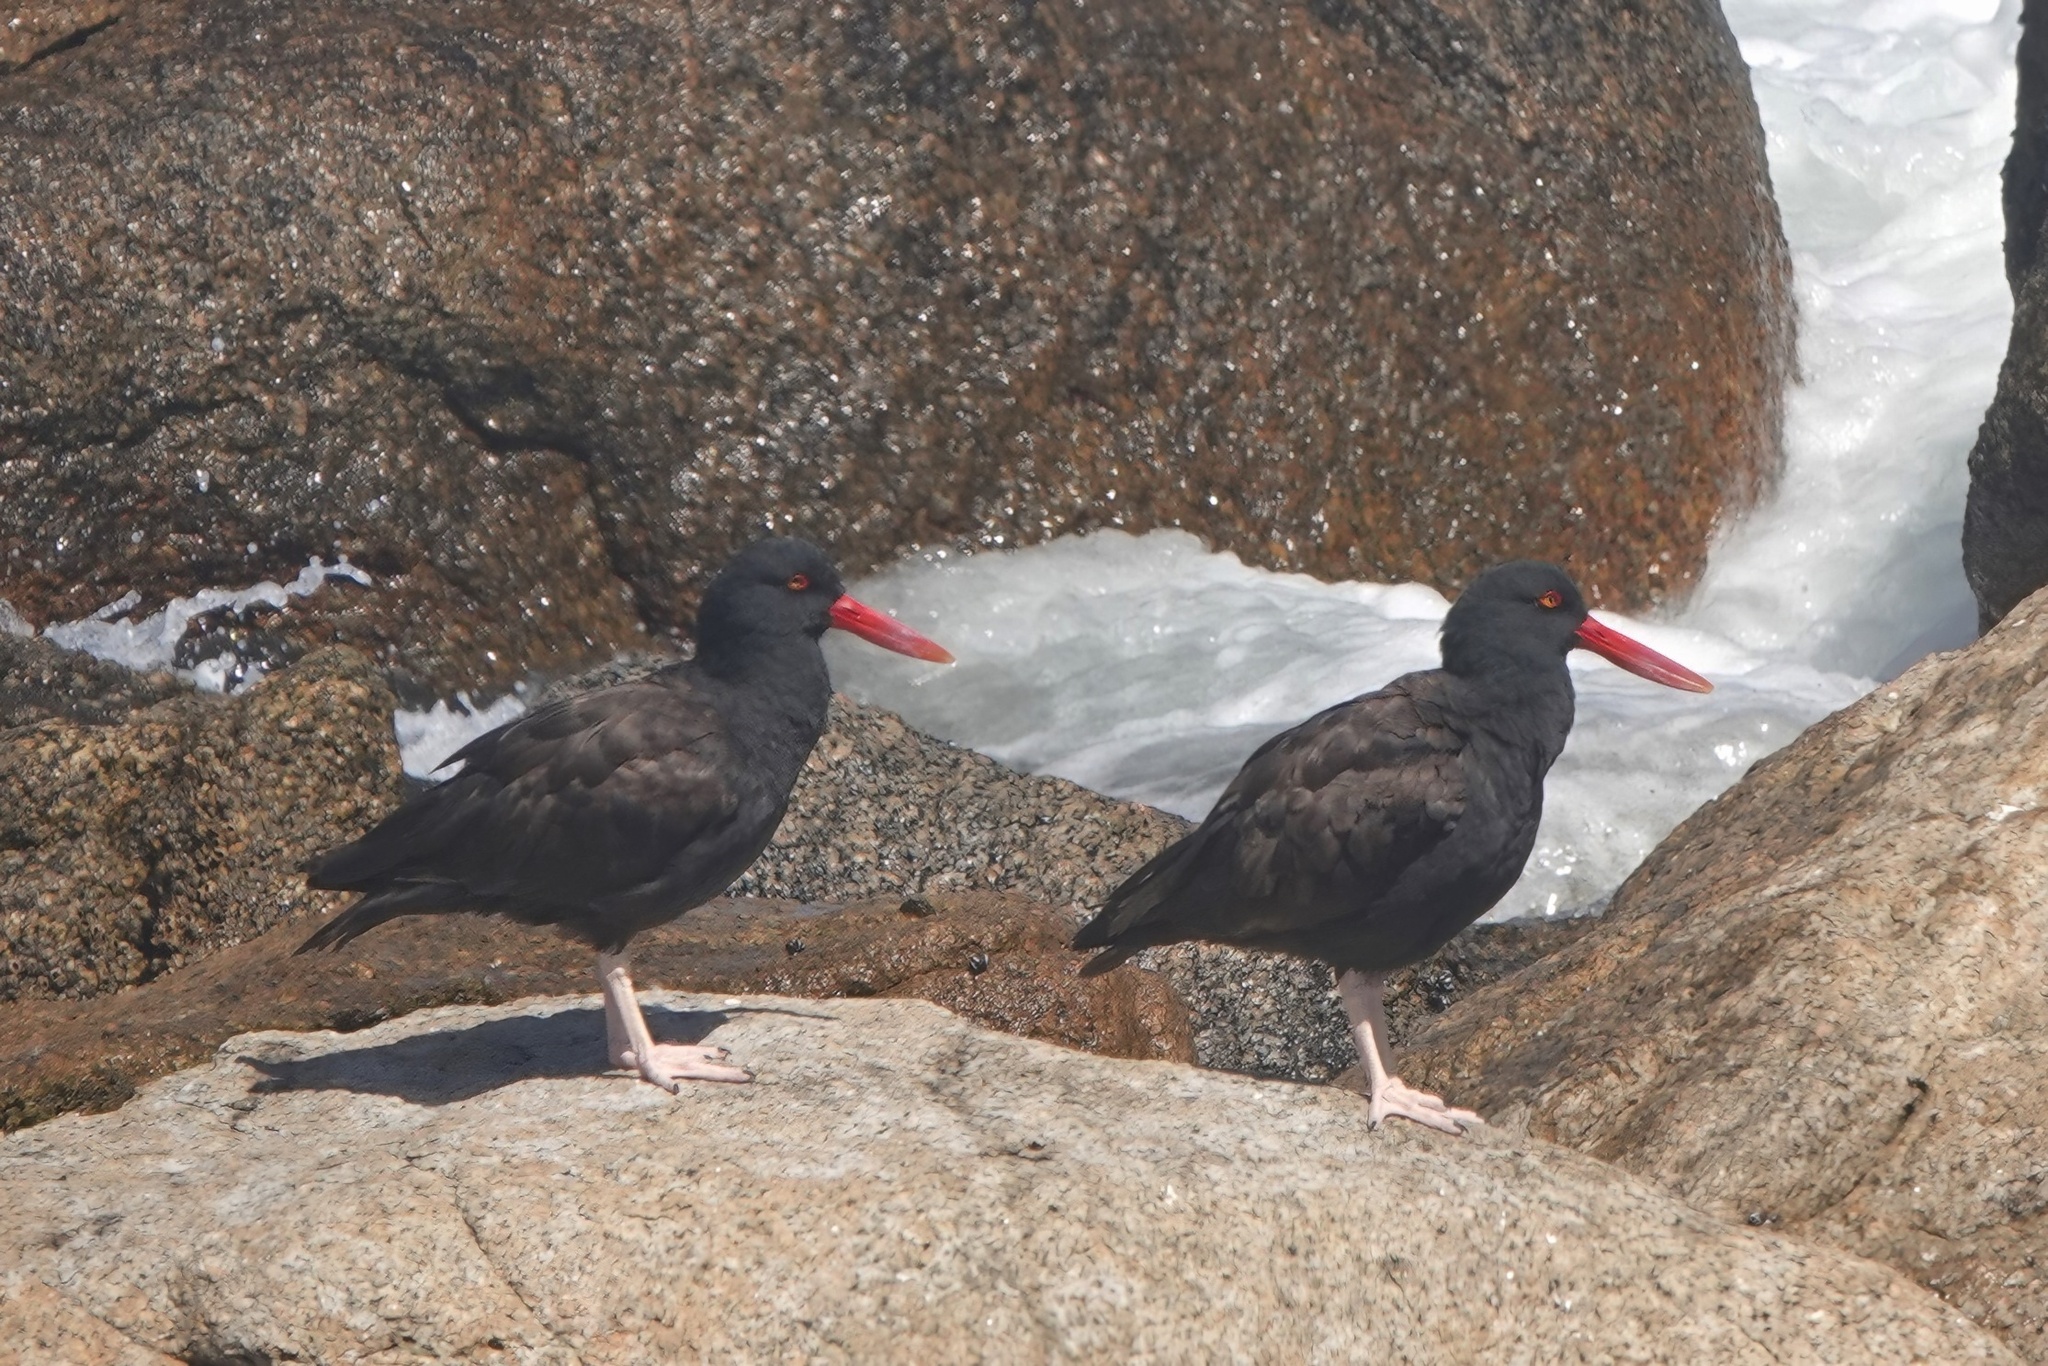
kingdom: Animalia
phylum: Chordata
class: Aves
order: Charadriiformes
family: Haematopodidae
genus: Haematopus
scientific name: Haematopus ater
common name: Blackish oystercatcher
